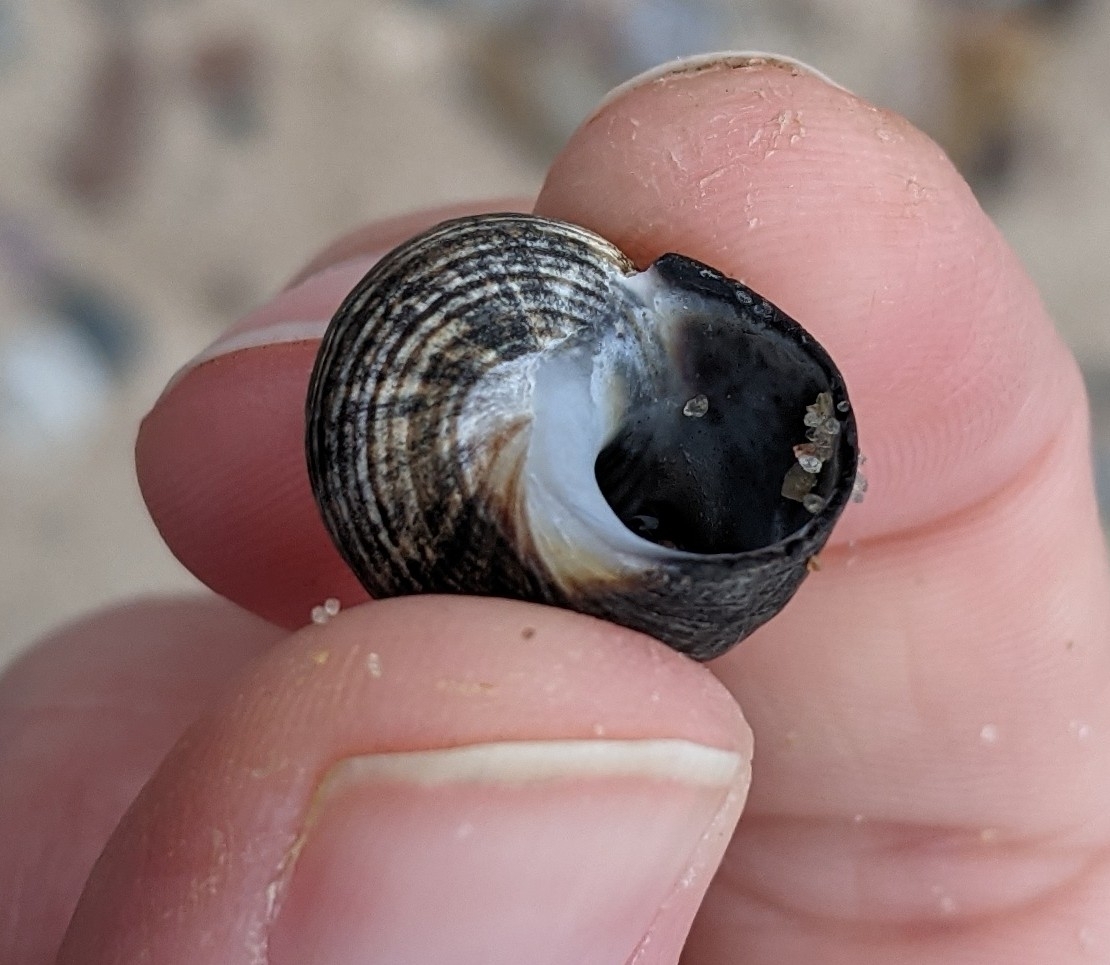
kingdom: Animalia
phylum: Mollusca
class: Gastropoda
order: Littorinimorpha
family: Littorinidae
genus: Littorina
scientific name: Littorina littorea
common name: Common periwinkle
